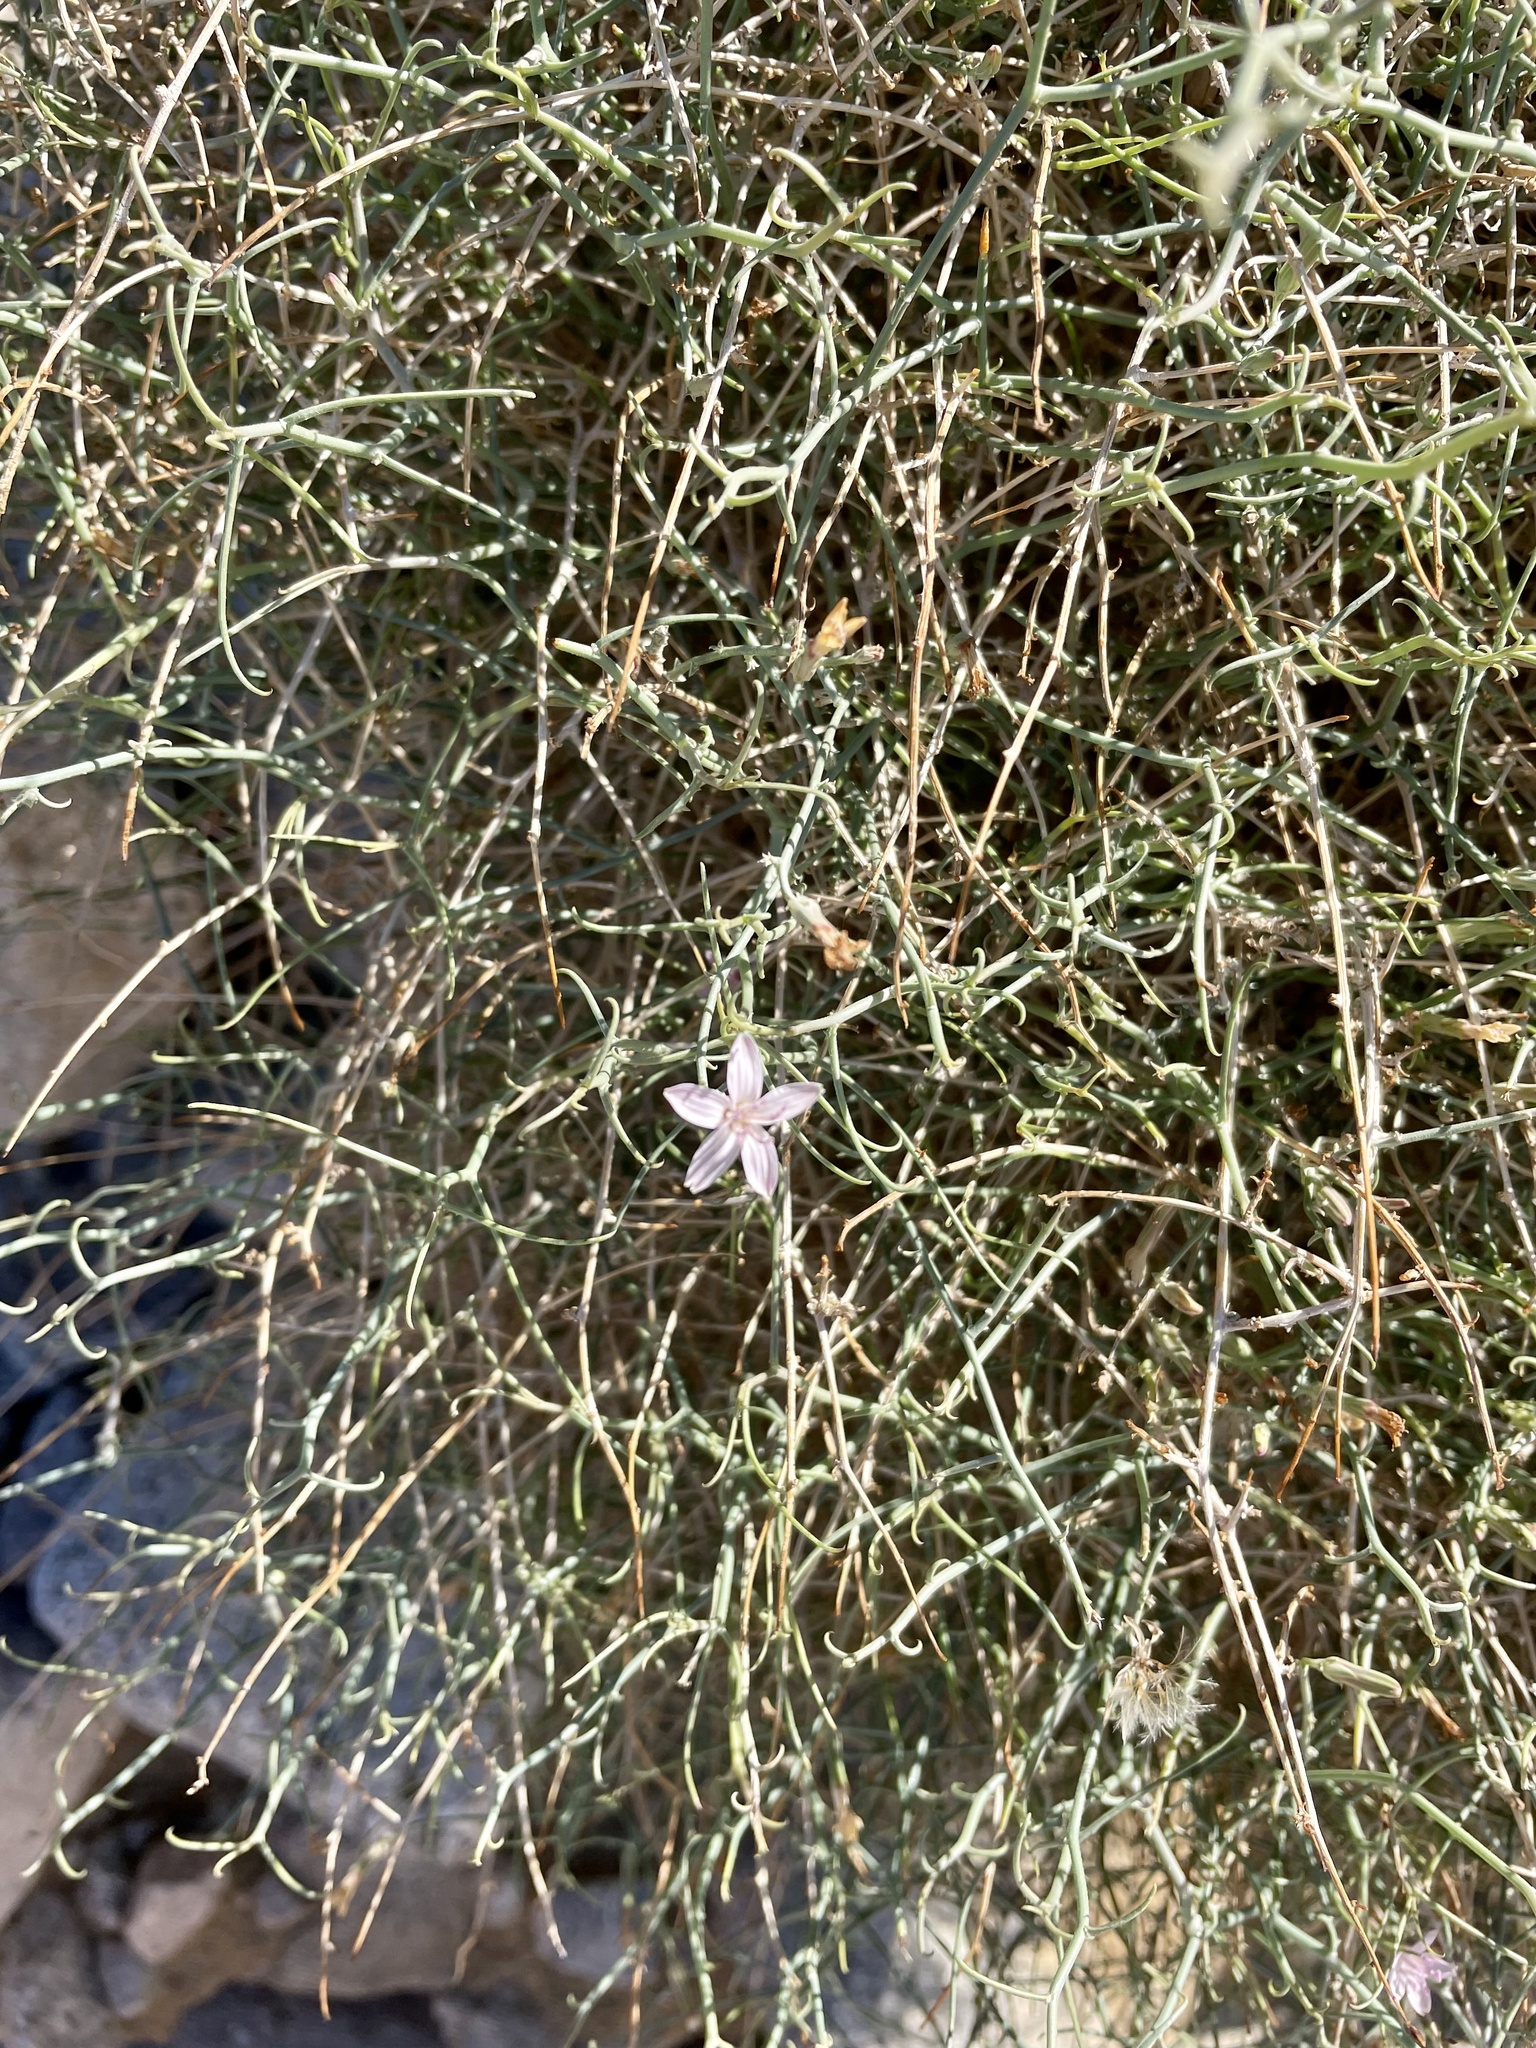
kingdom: Plantae
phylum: Tracheophyta
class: Magnoliopsida
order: Asterales
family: Asteraceae
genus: Stephanomeria
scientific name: Stephanomeria pauciflora
